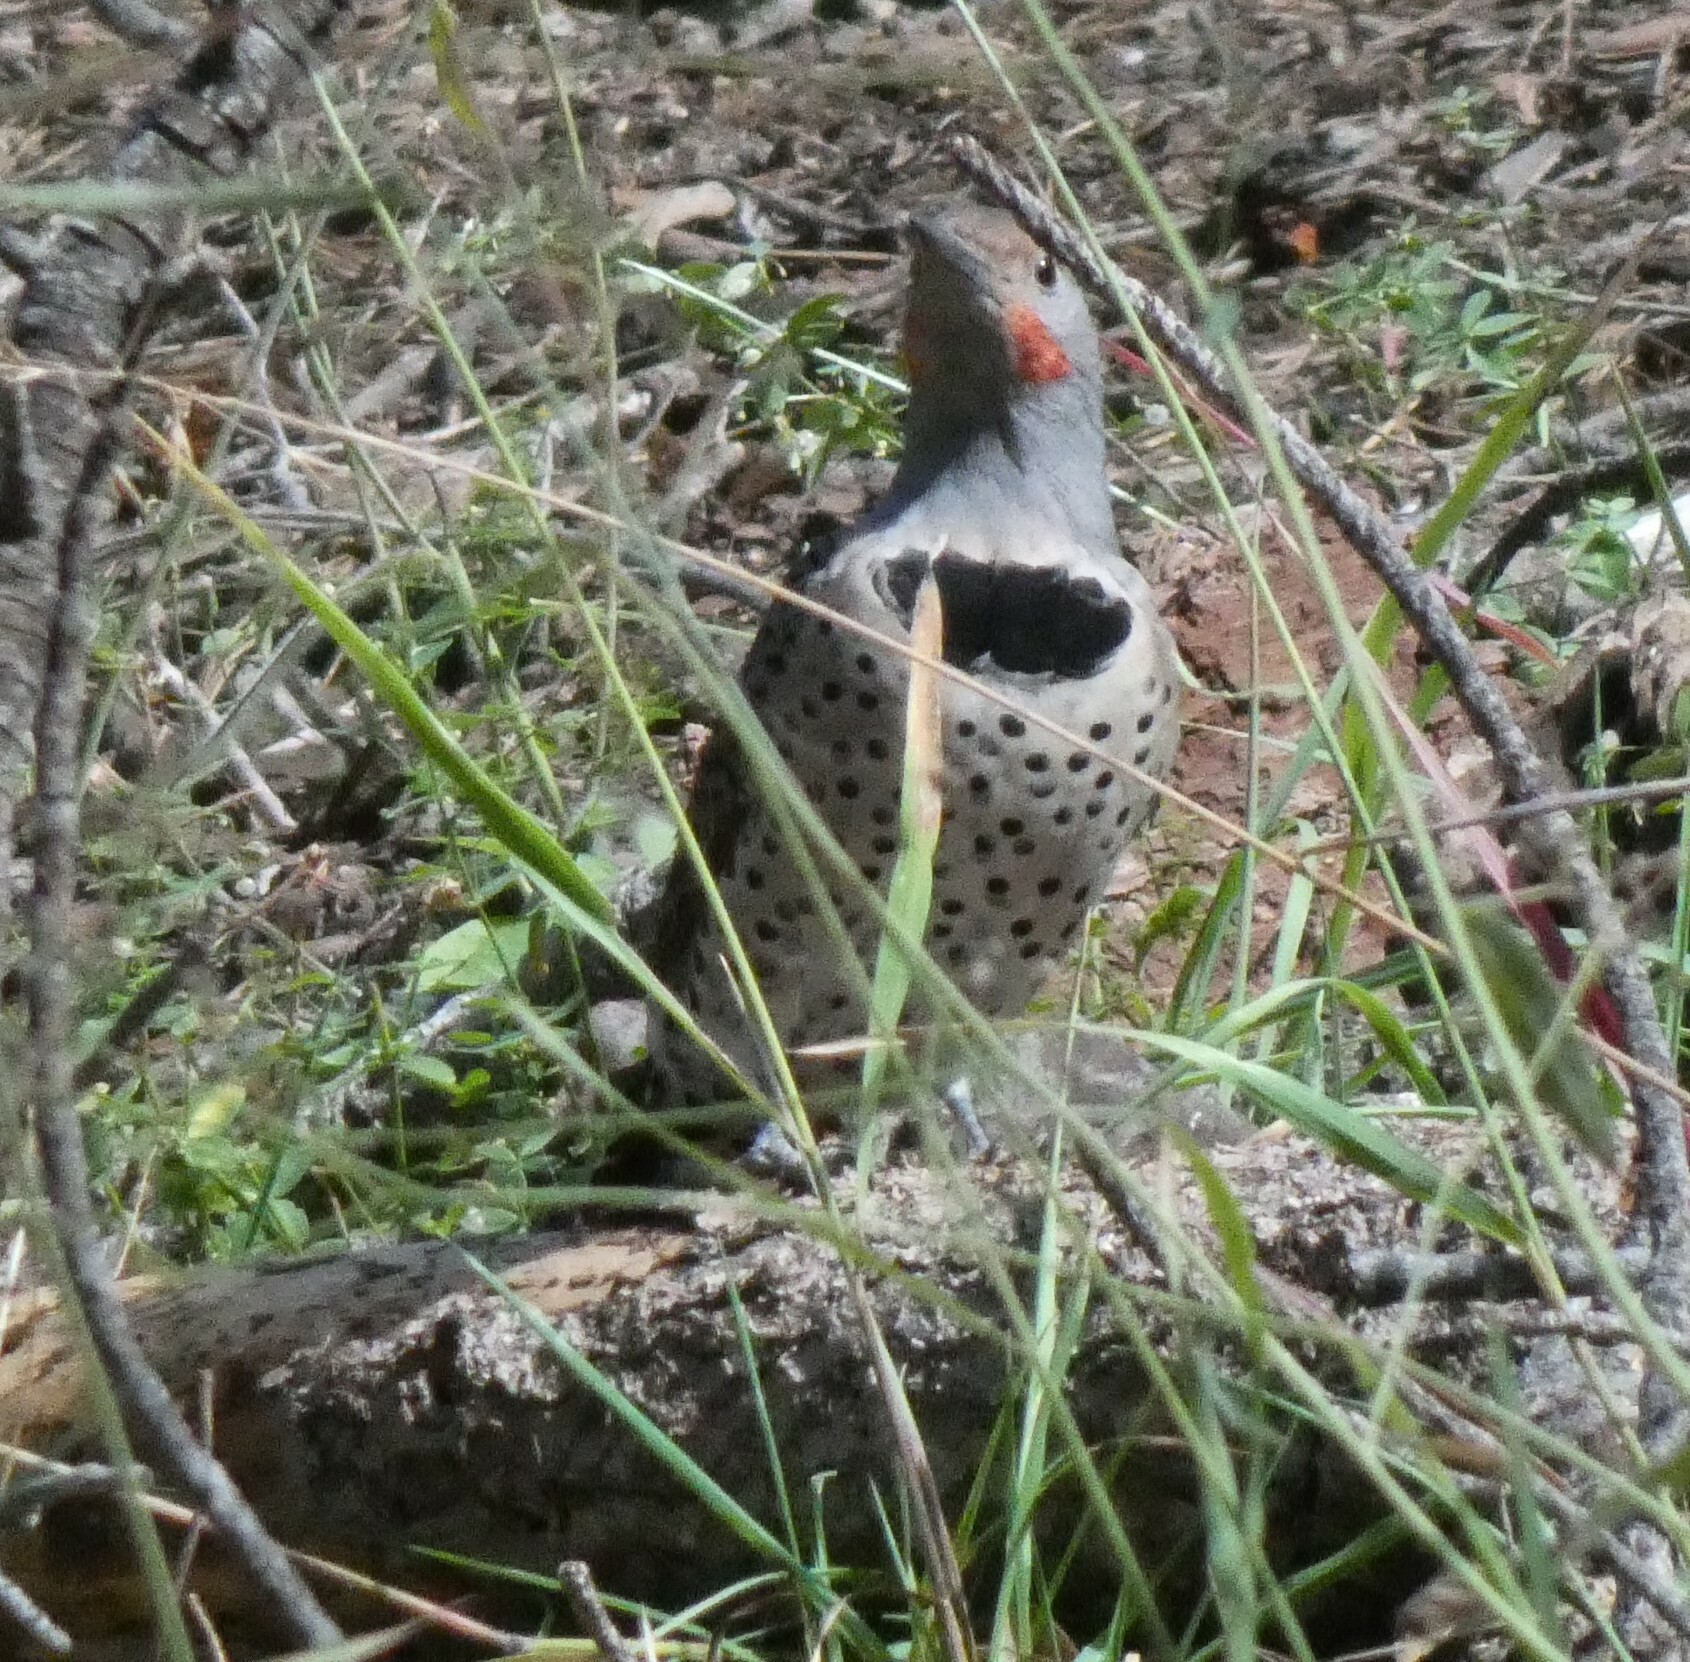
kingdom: Animalia
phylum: Chordata
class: Aves
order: Piciformes
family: Picidae
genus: Colaptes
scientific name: Colaptes auratus
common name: Northern flicker
